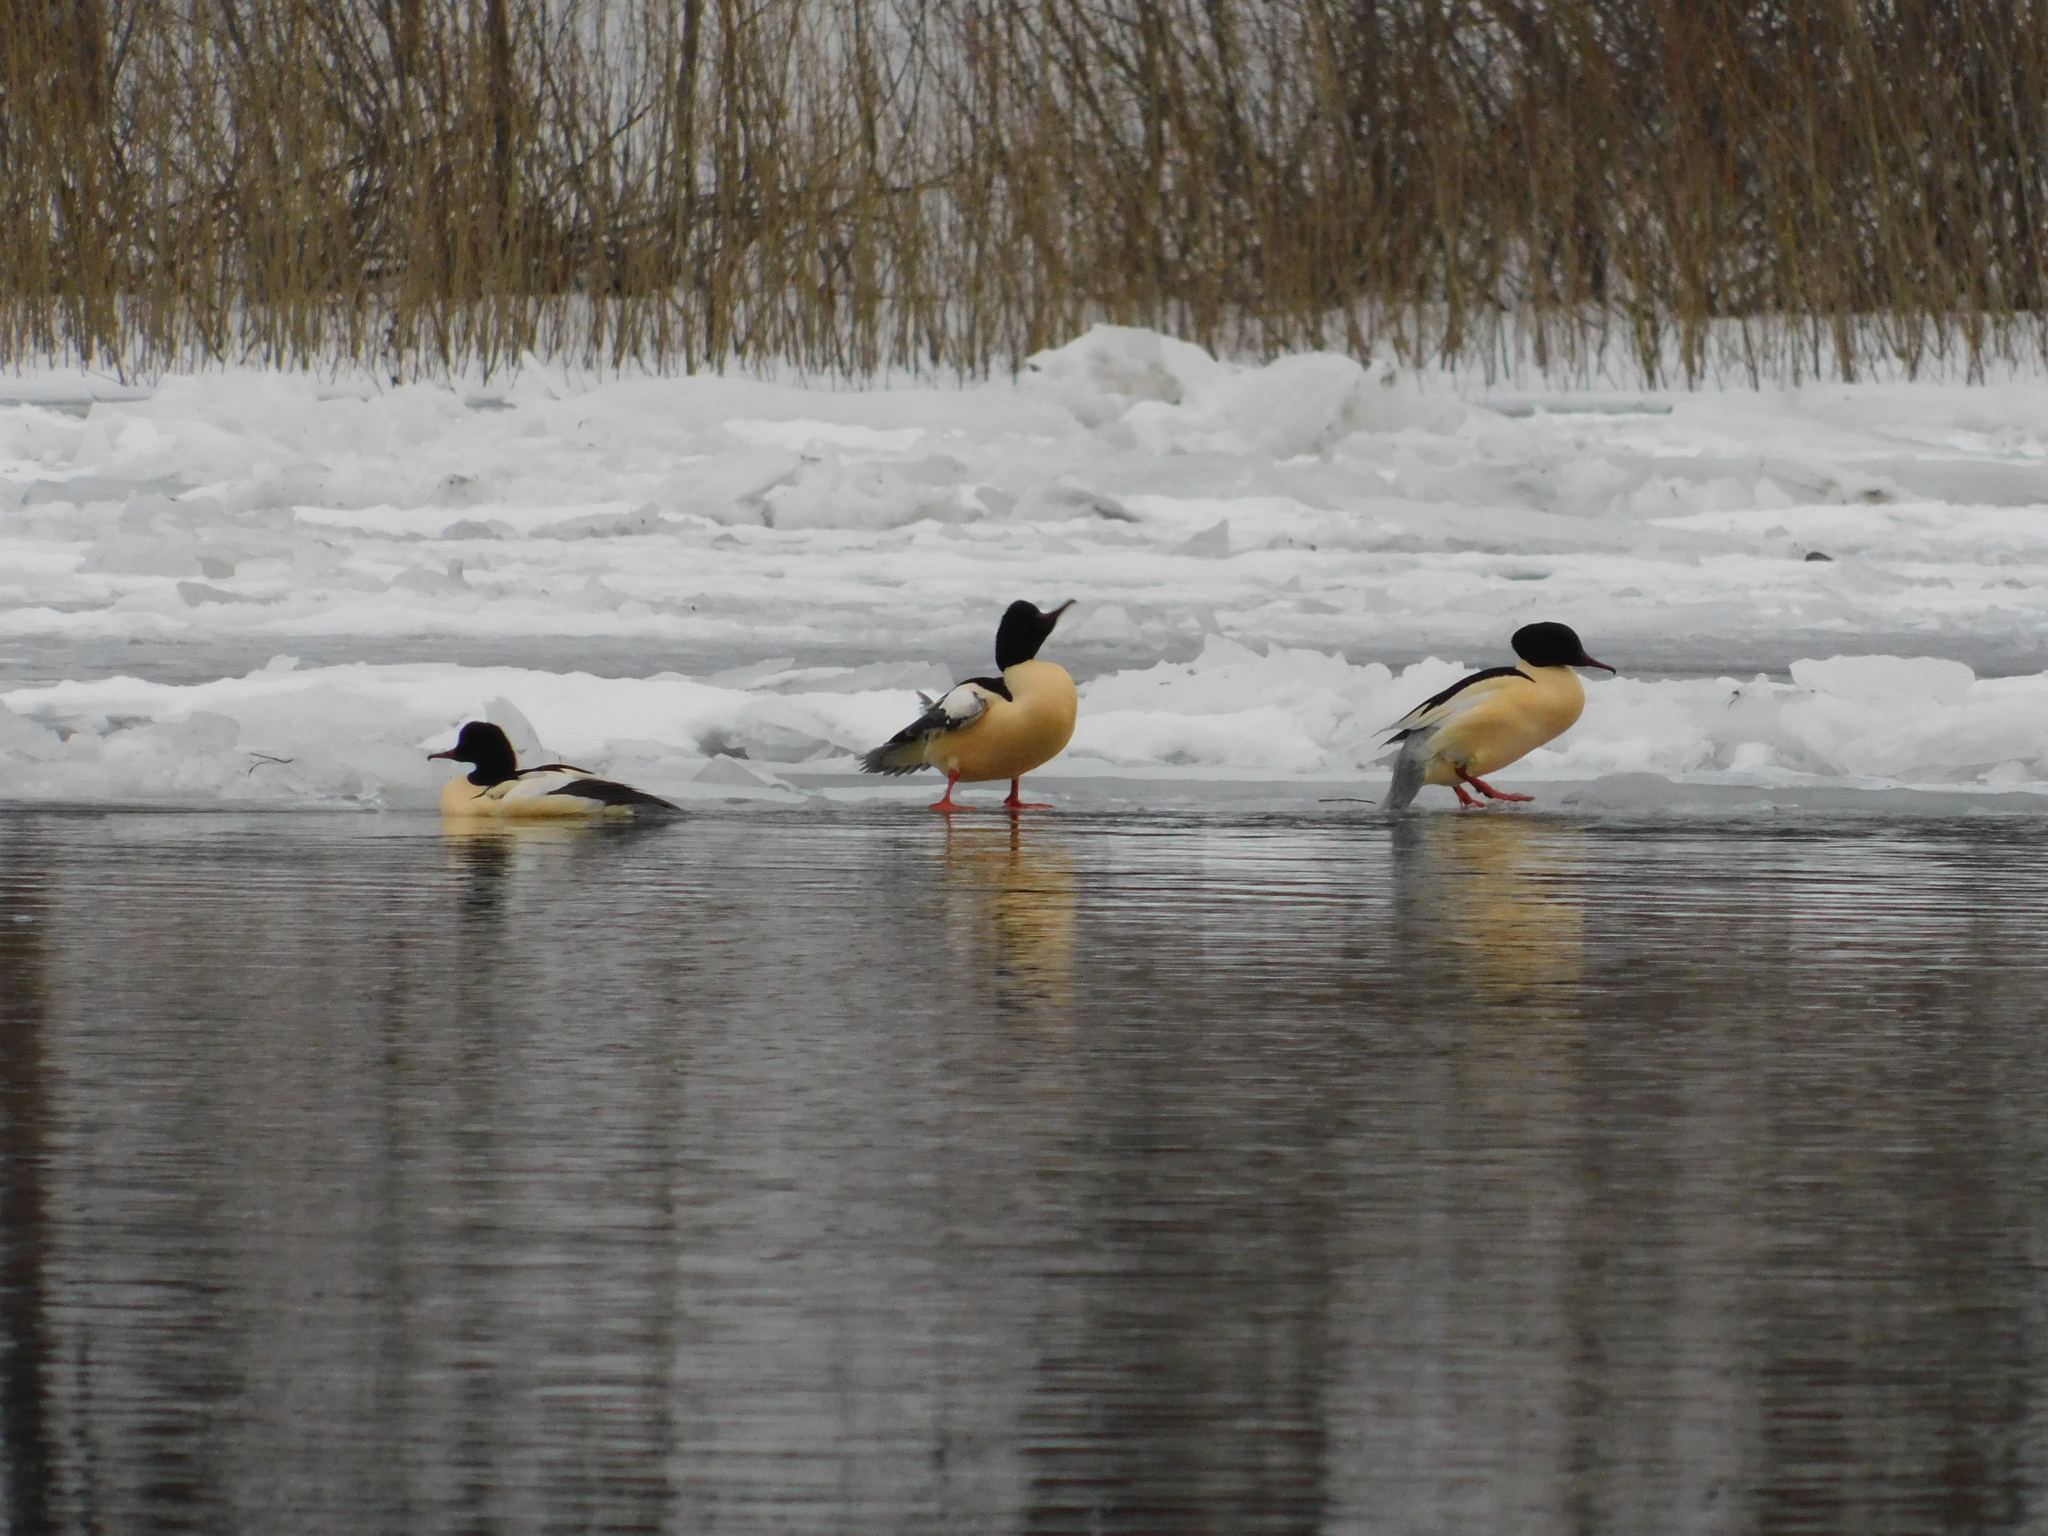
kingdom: Animalia
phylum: Chordata
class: Aves
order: Anseriformes
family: Anatidae
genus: Mergus
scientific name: Mergus merganser
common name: Common merganser
